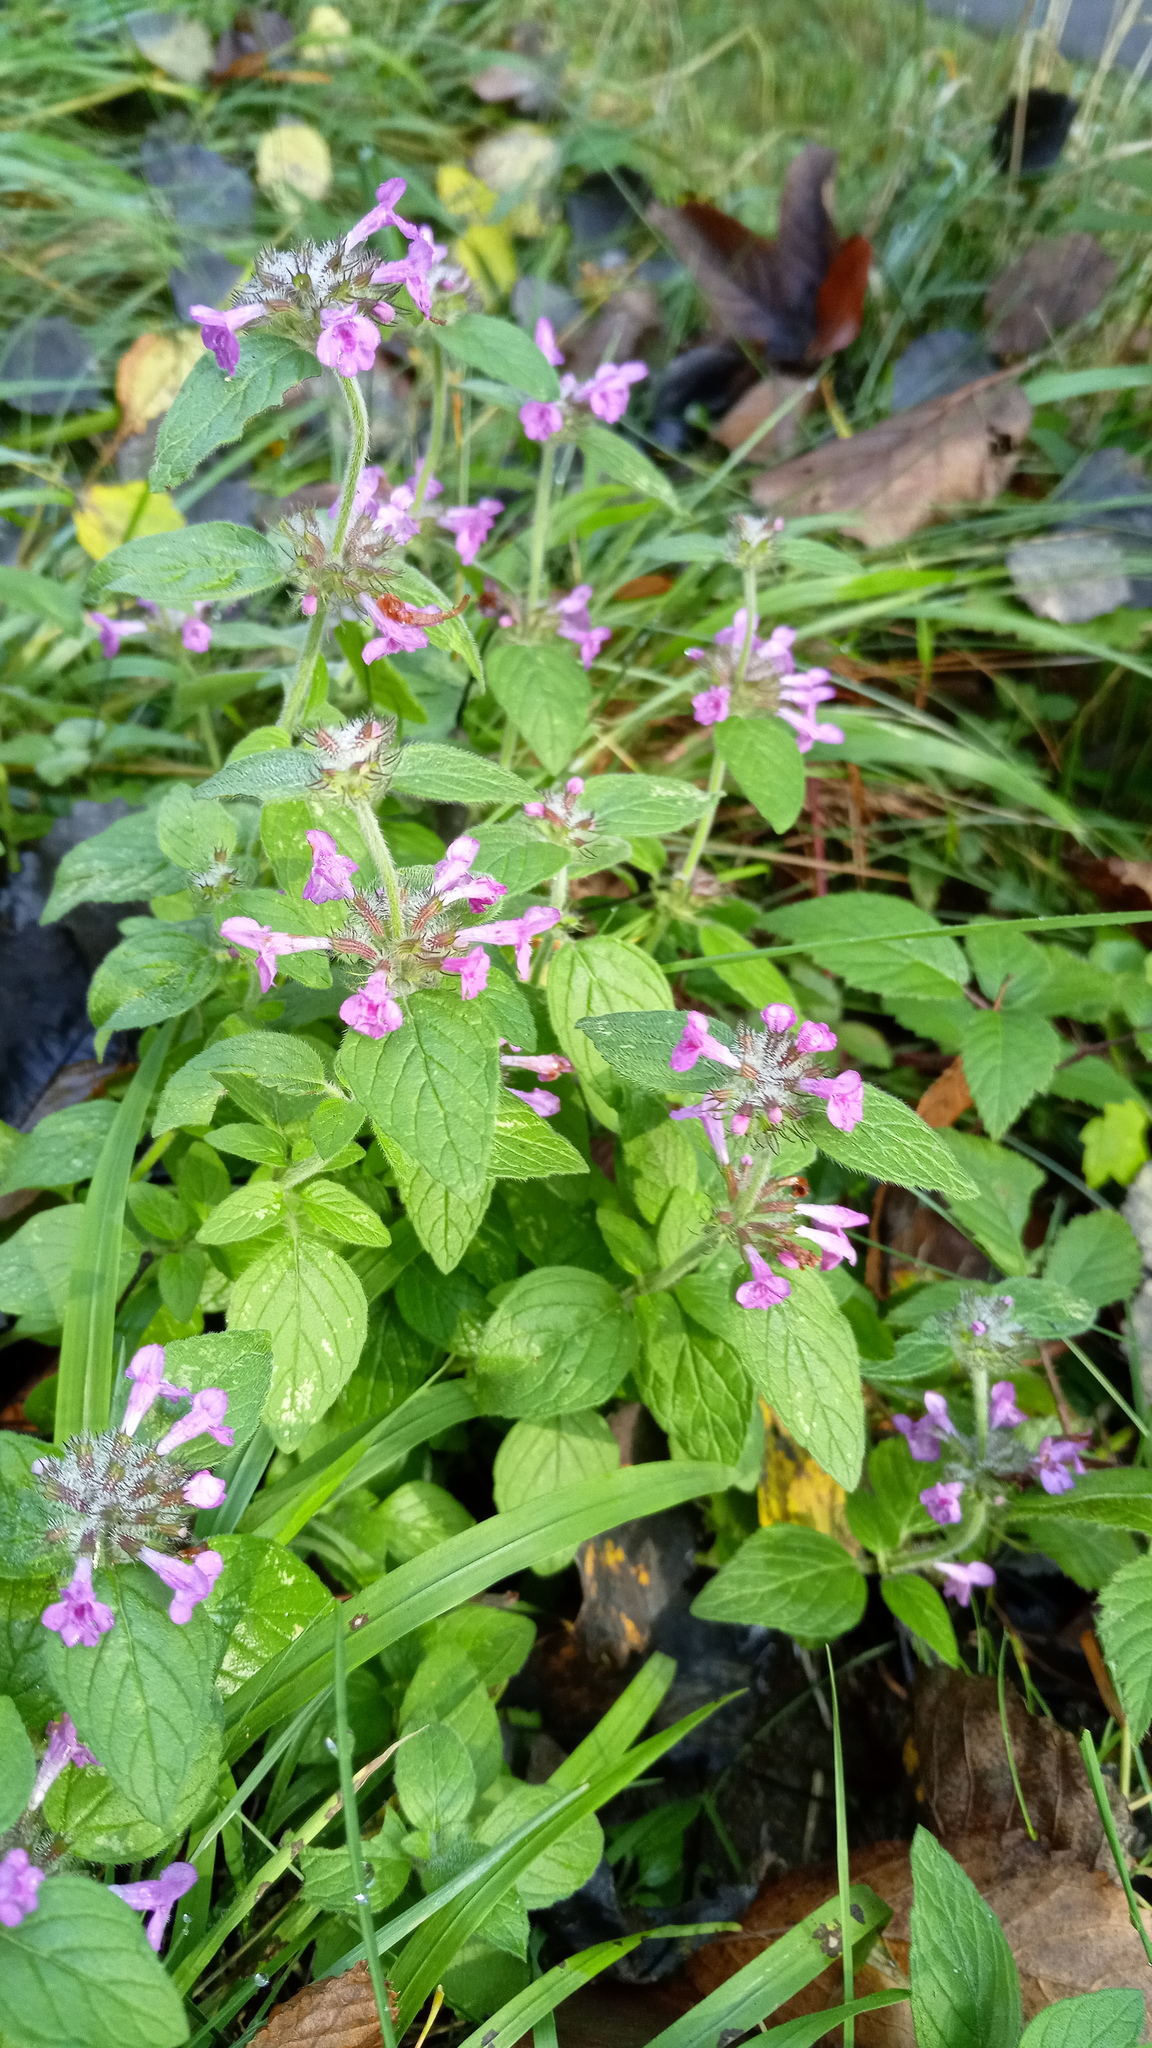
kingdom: Plantae
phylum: Tracheophyta
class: Magnoliopsida
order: Lamiales
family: Lamiaceae
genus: Clinopodium
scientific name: Clinopodium vulgare
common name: Wild basil
